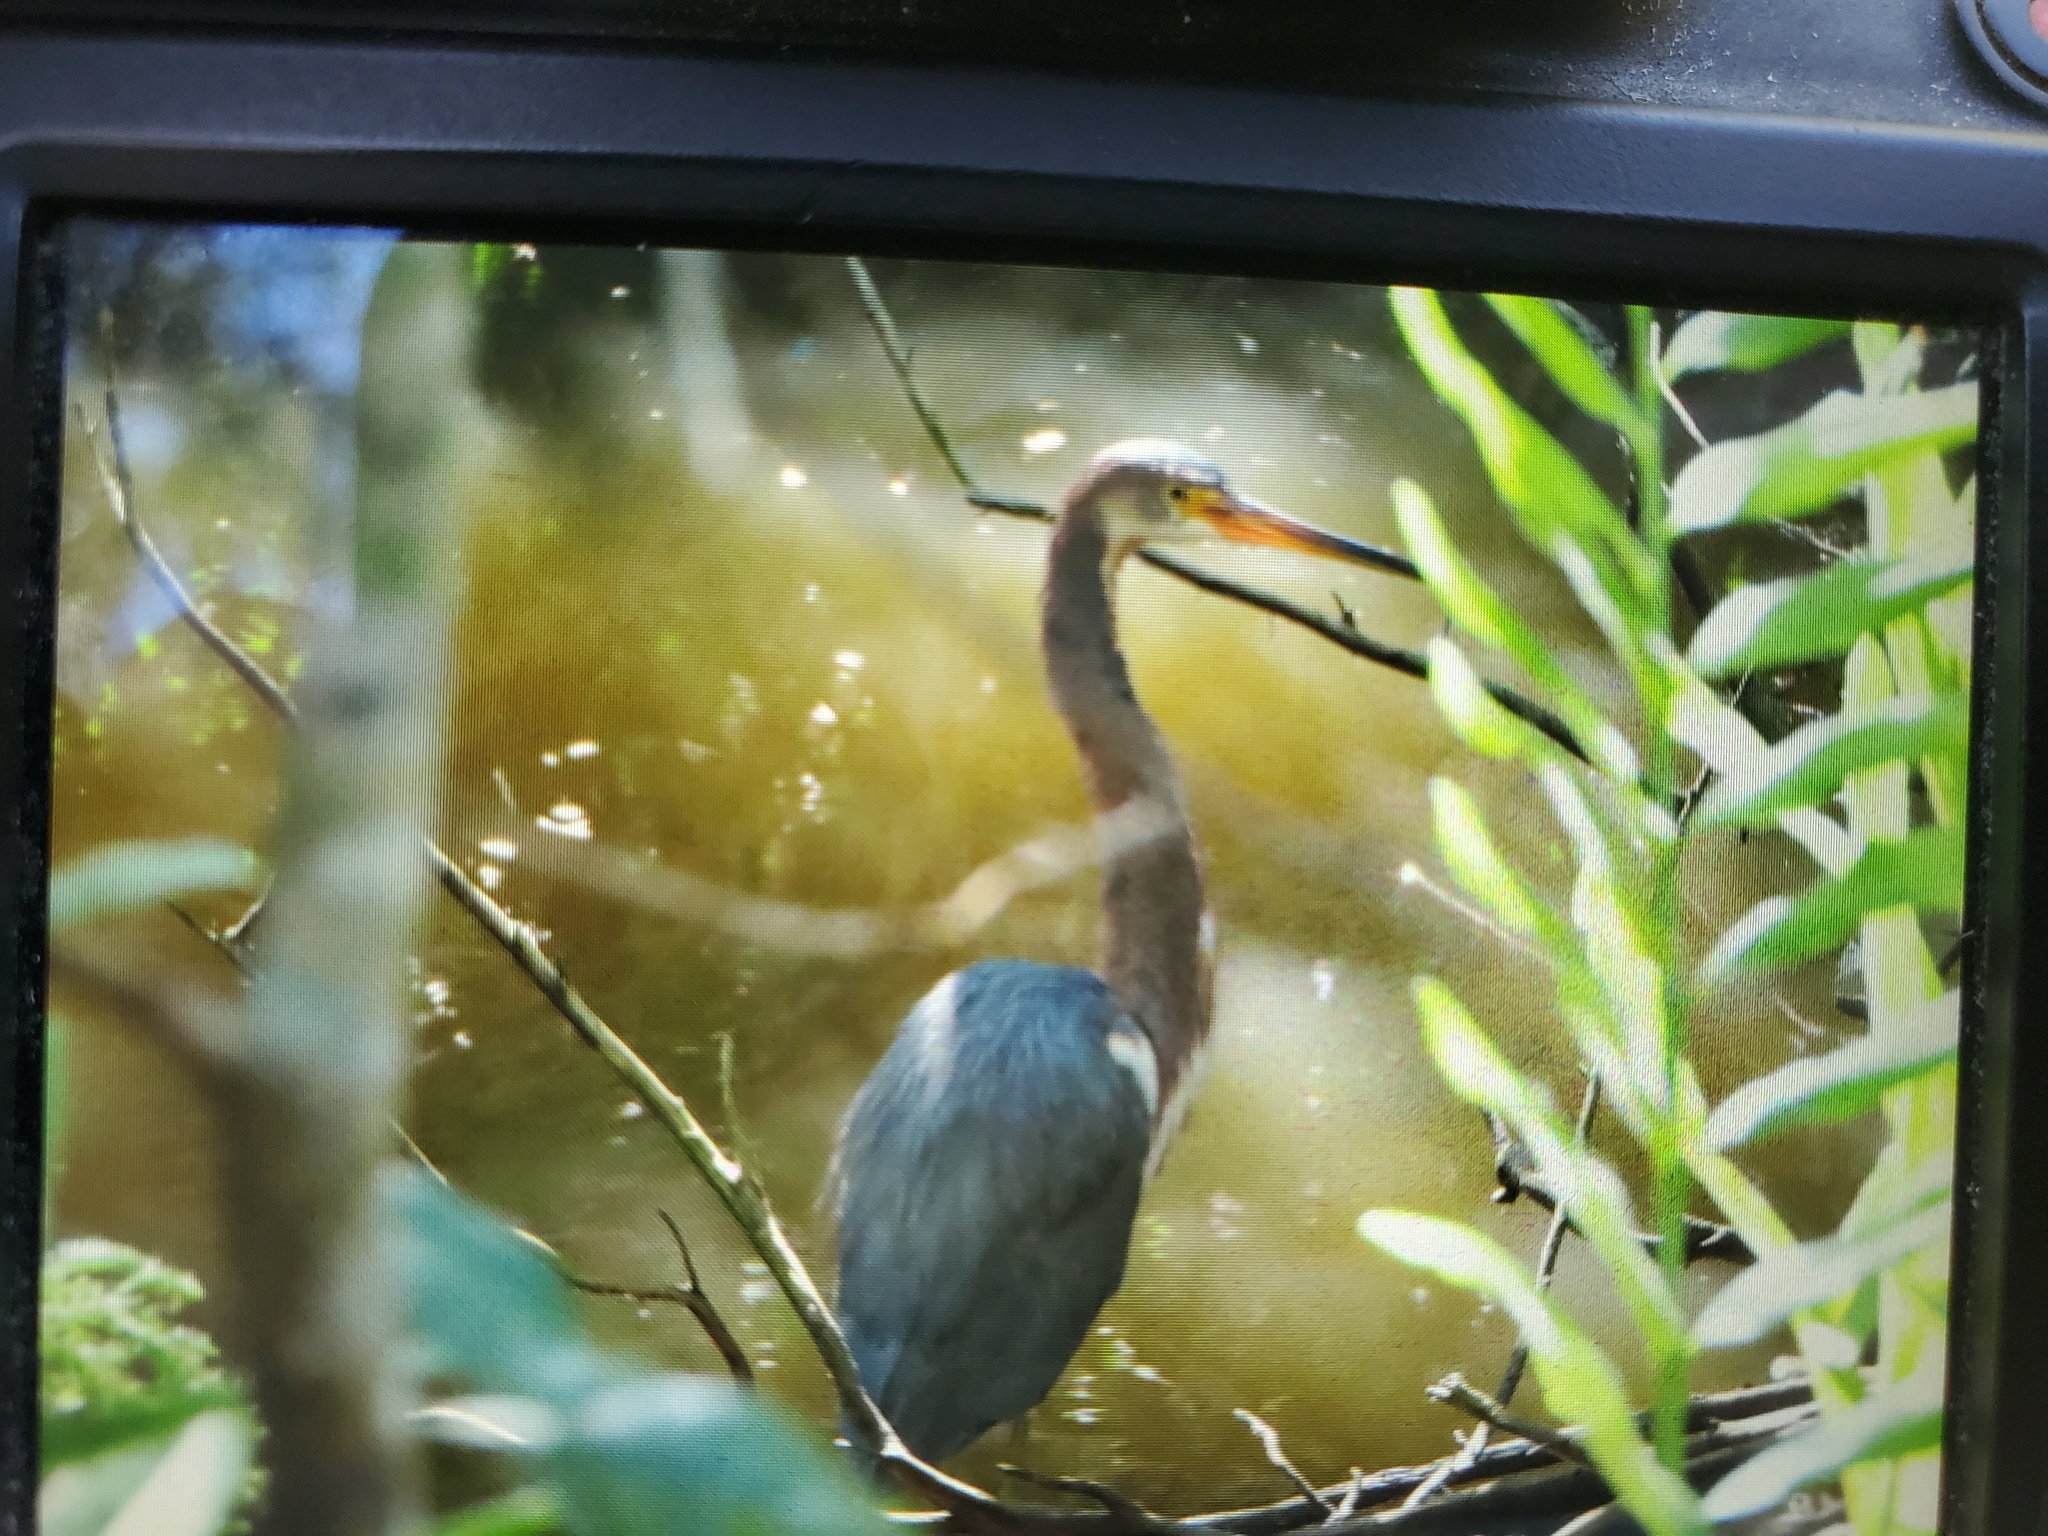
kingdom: Animalia
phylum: Chordata
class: Aves
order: Pelecaniformes
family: Ardeidae
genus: Egretta
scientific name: Egretta tricolor
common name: Tricolored heron
